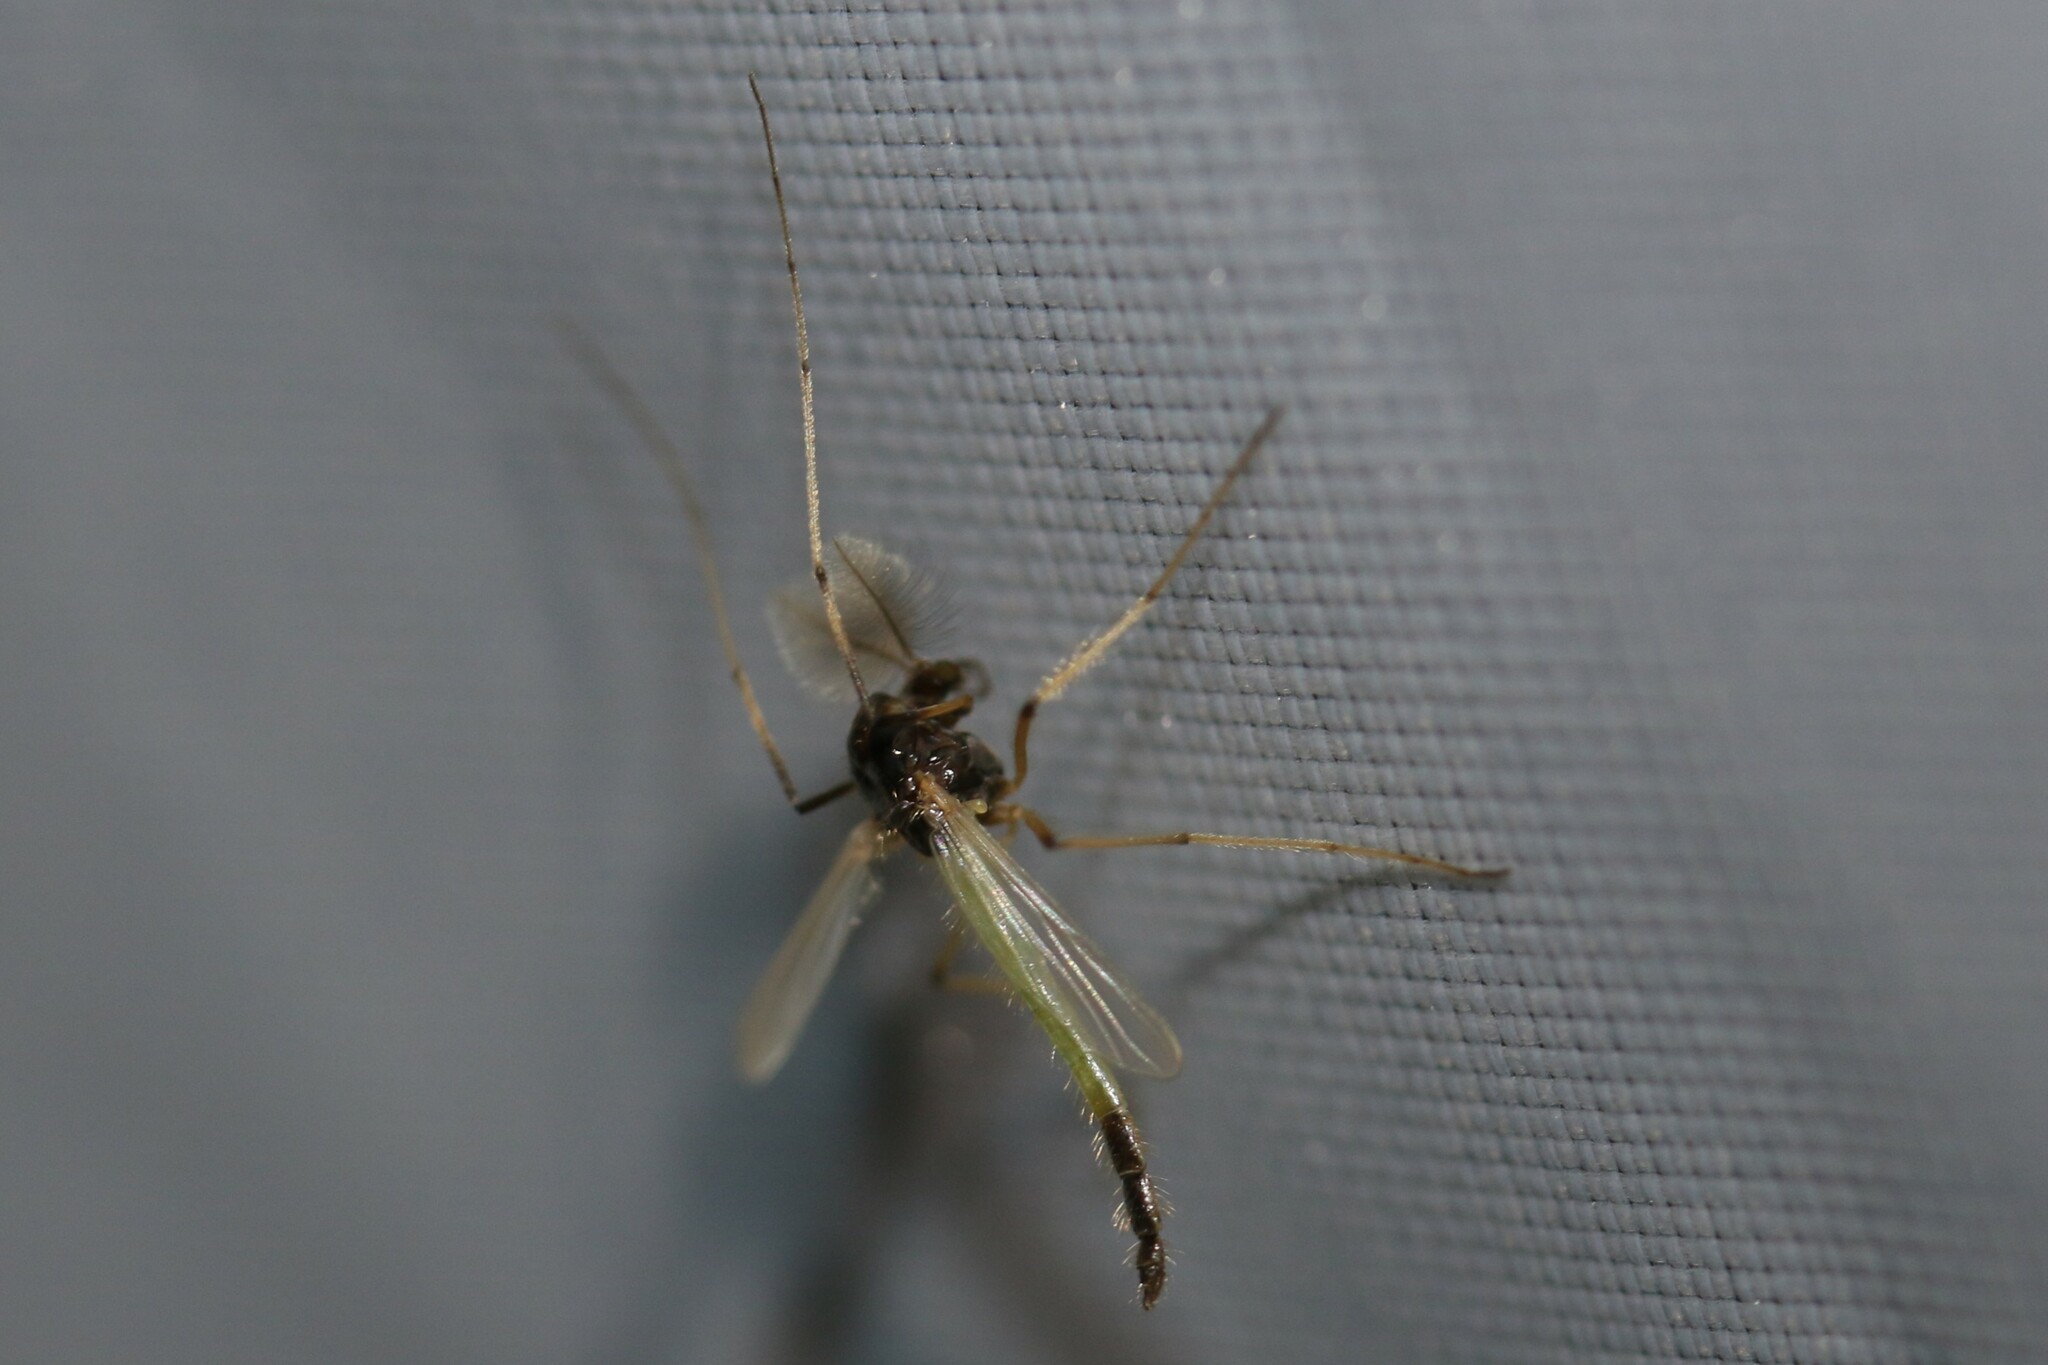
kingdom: Animalia
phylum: Arthropoda
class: Insecta
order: Diptera
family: Chironomidae
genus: Microtendipes
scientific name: Microtendipes pedellus
